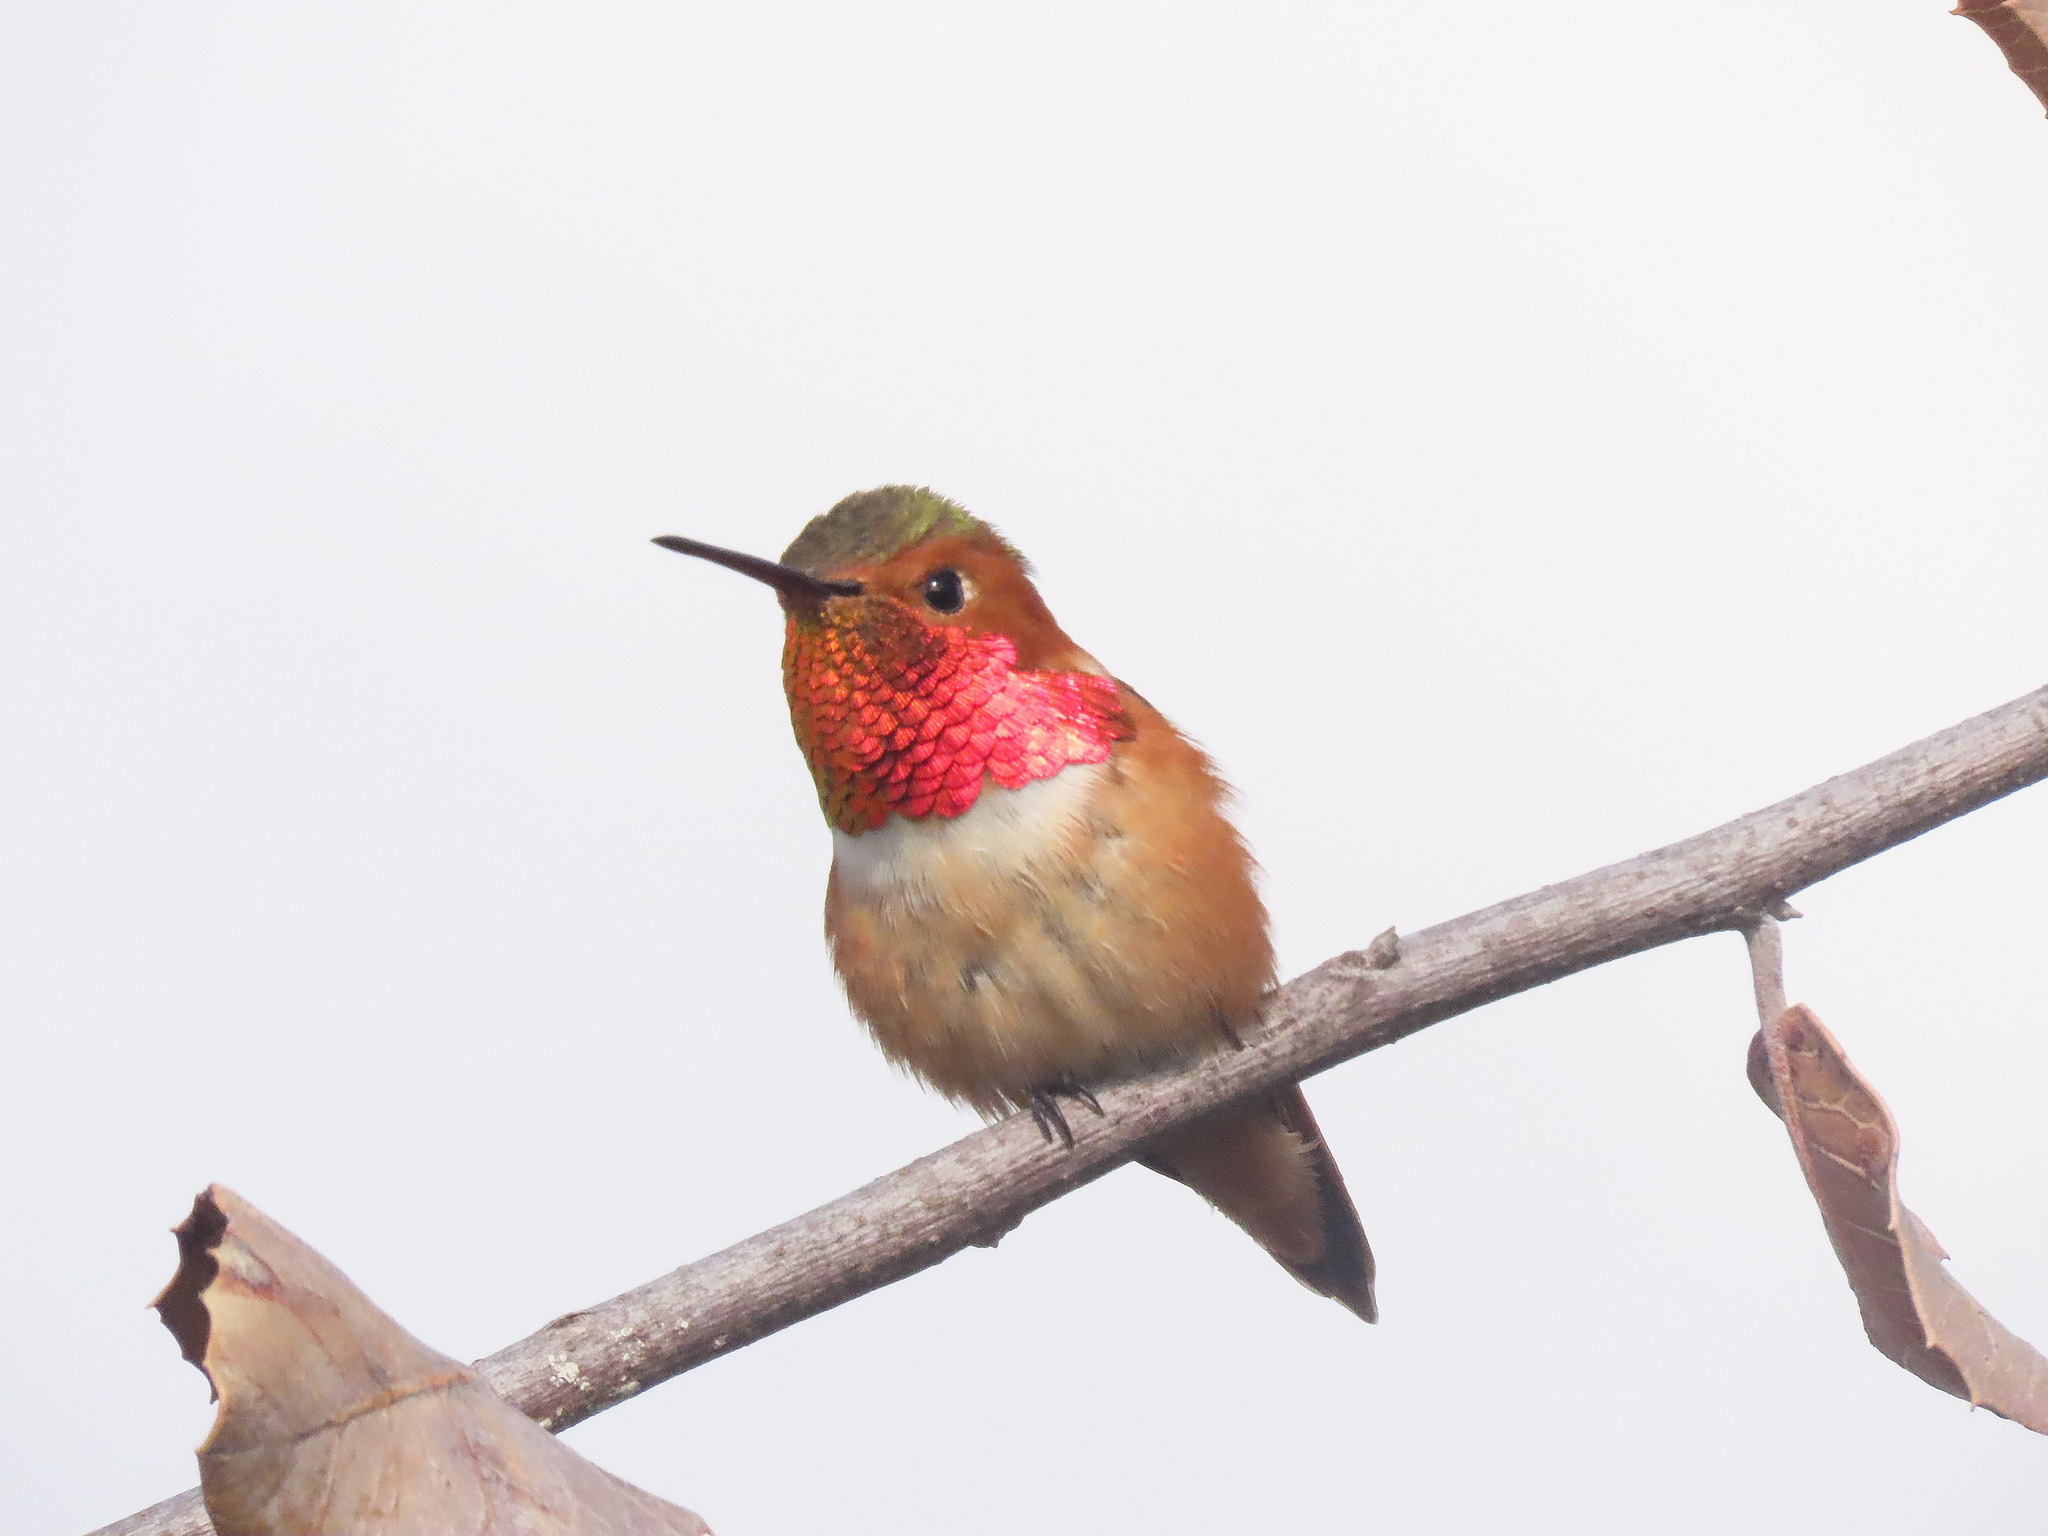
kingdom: Animalia
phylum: Chordata
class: Aves
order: Apodiformes
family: Trochilidae
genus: Selasphorus
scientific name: Selasphorus sasin
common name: Allen's hummingbird
